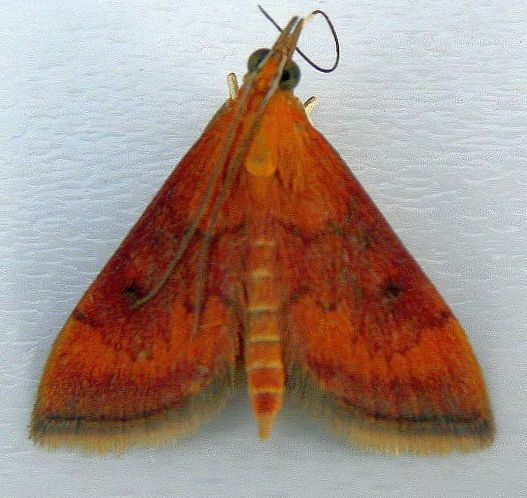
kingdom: Animalia
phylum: Arthropoda
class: Insecta
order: Lepidoptera
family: Crambidae
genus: Pyrausta
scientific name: Pyrausta rubricalis
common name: Variable reddish pyrausta
